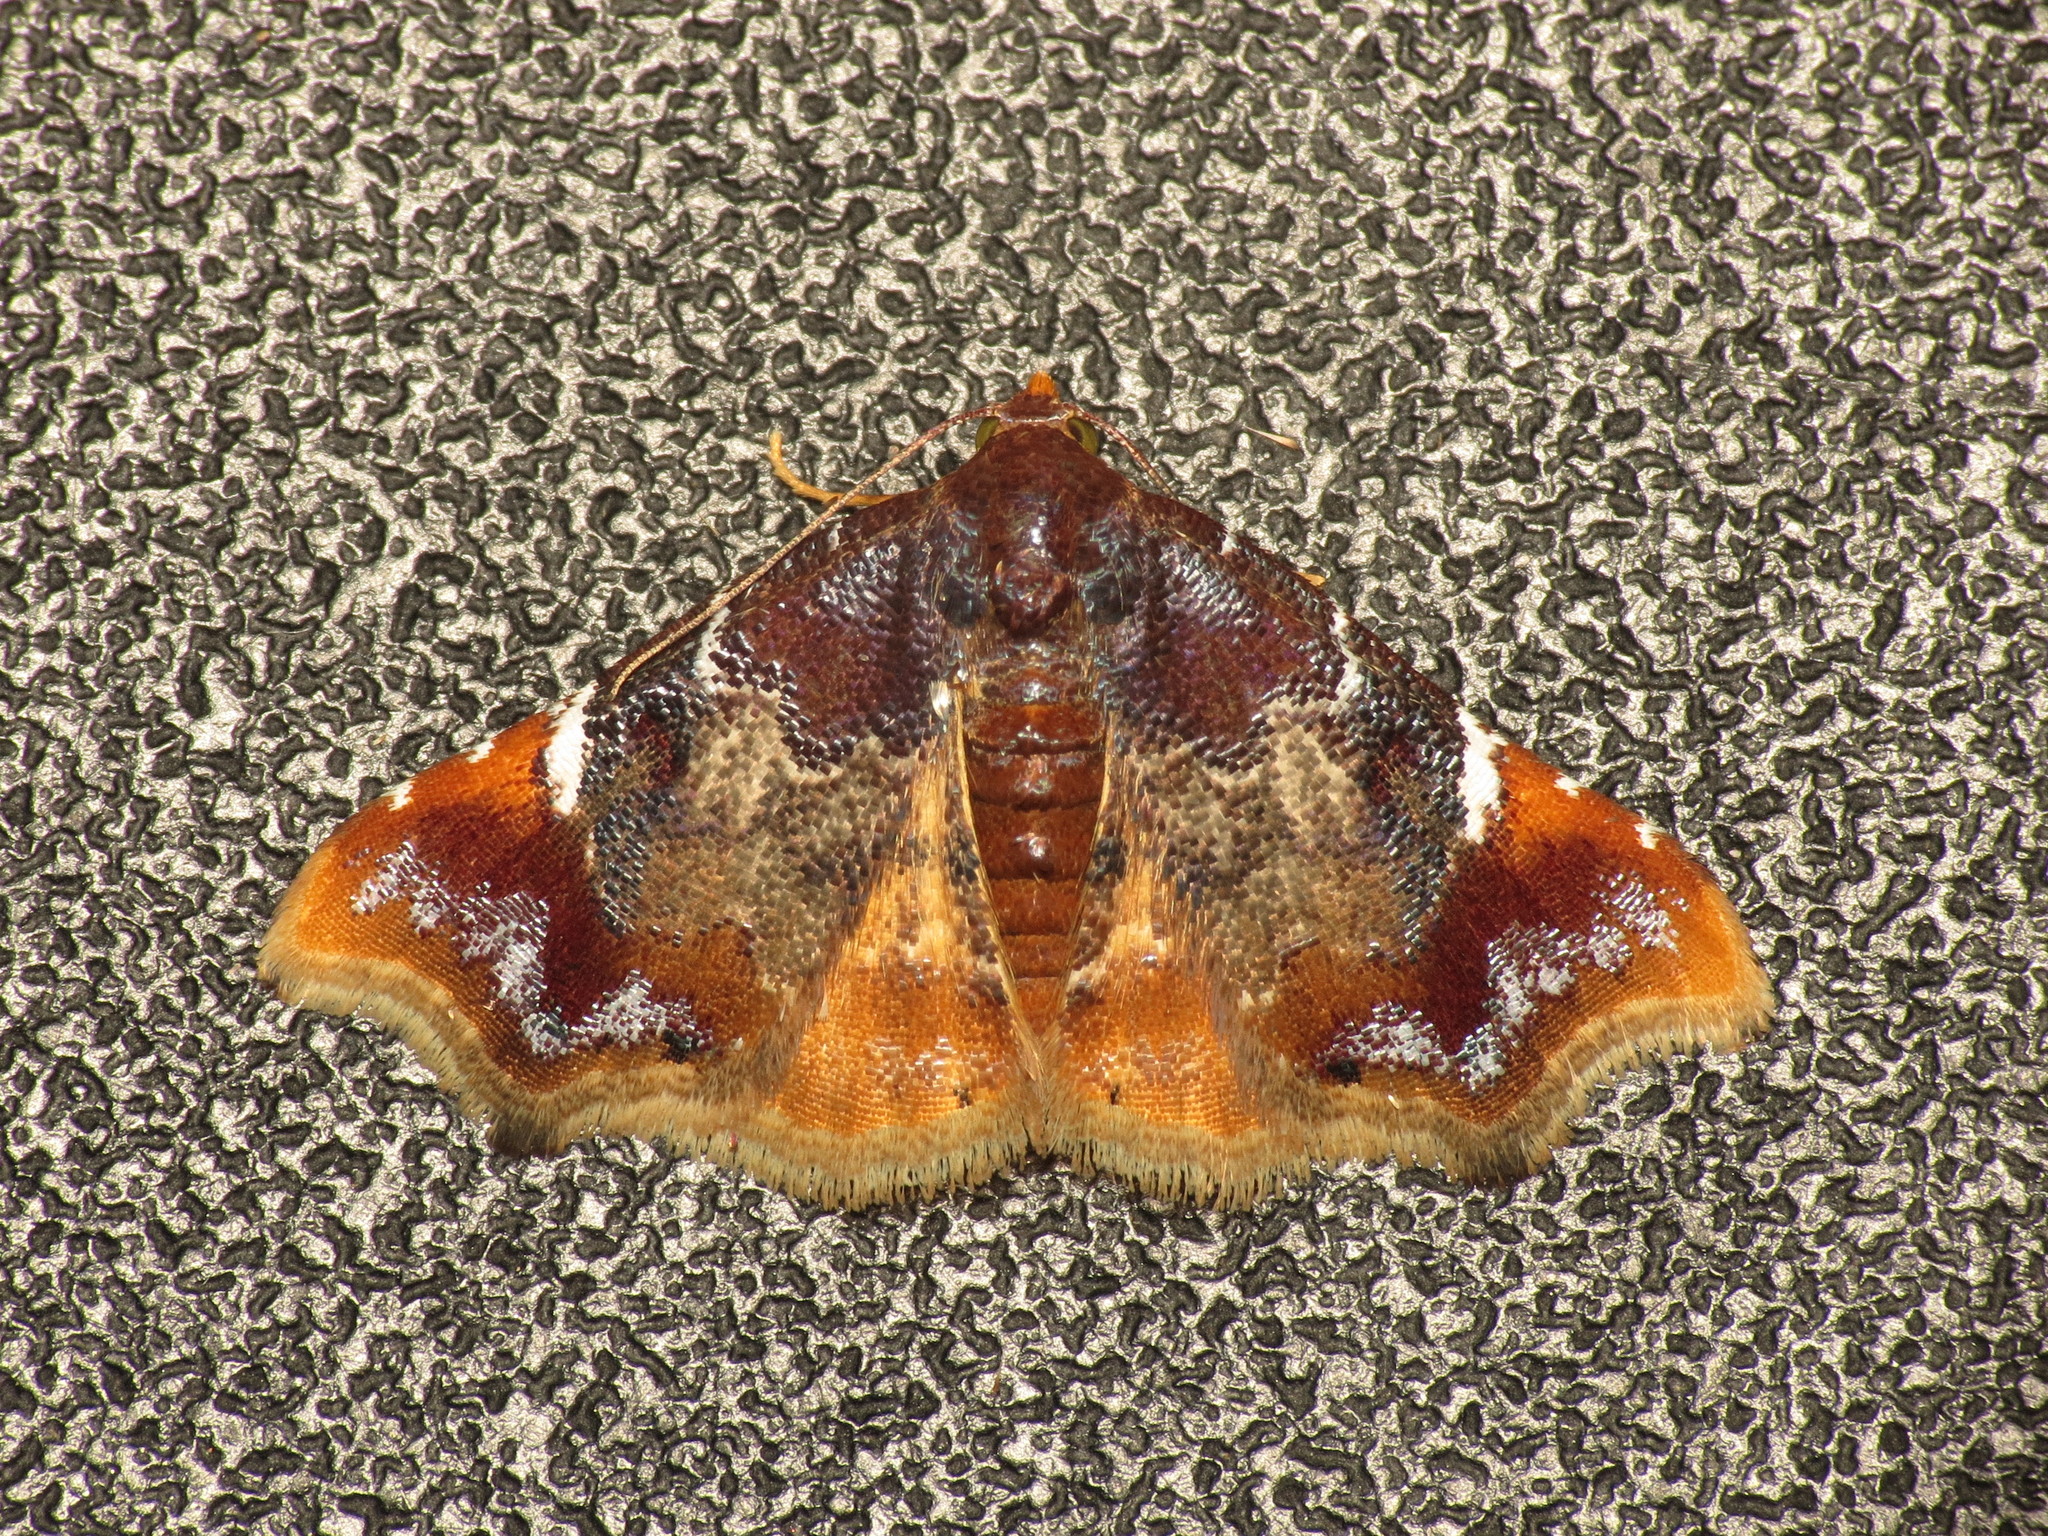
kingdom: Animalia
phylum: Arthropoda
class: Insecta
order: Lepidoptera
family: Erebidae
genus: Corgatha
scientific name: Corgatha drosera
